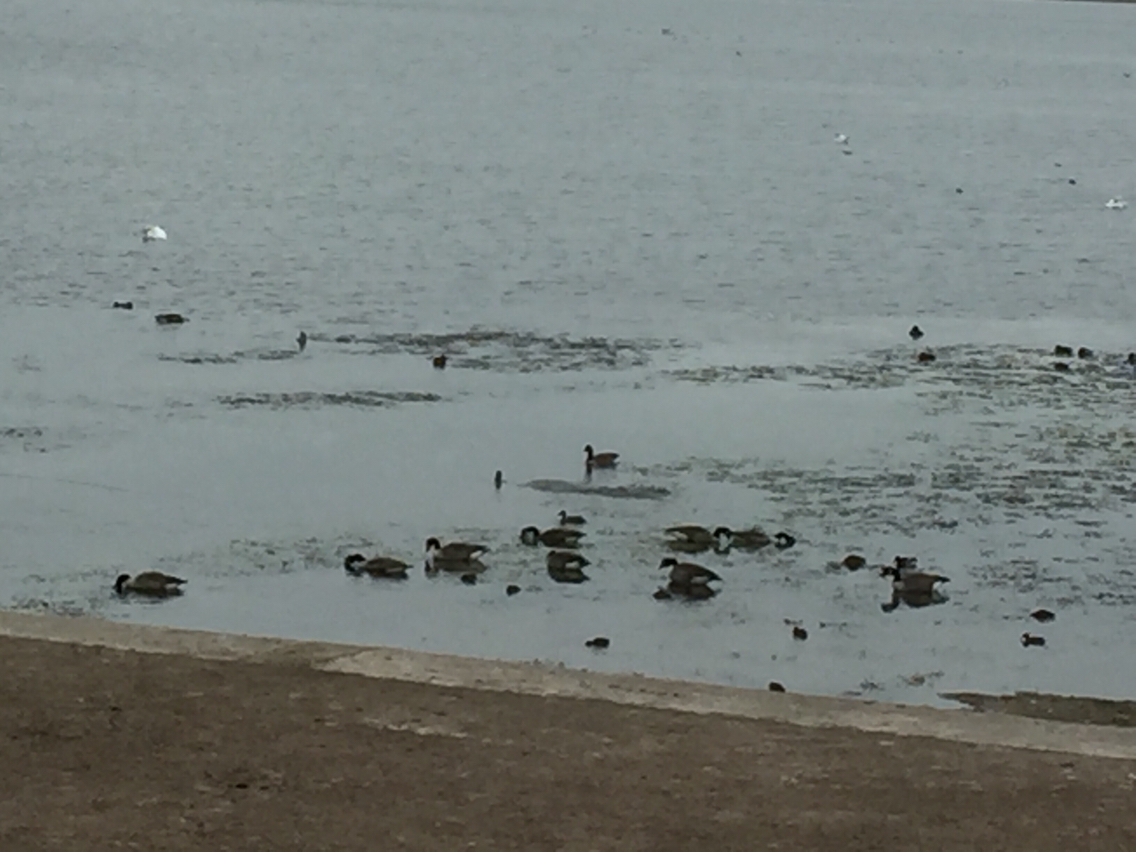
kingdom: Animalia
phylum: Chordata
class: Aves
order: Anseriformes
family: Anatidae
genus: Branta
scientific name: Branta canadensis
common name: Canada goose
